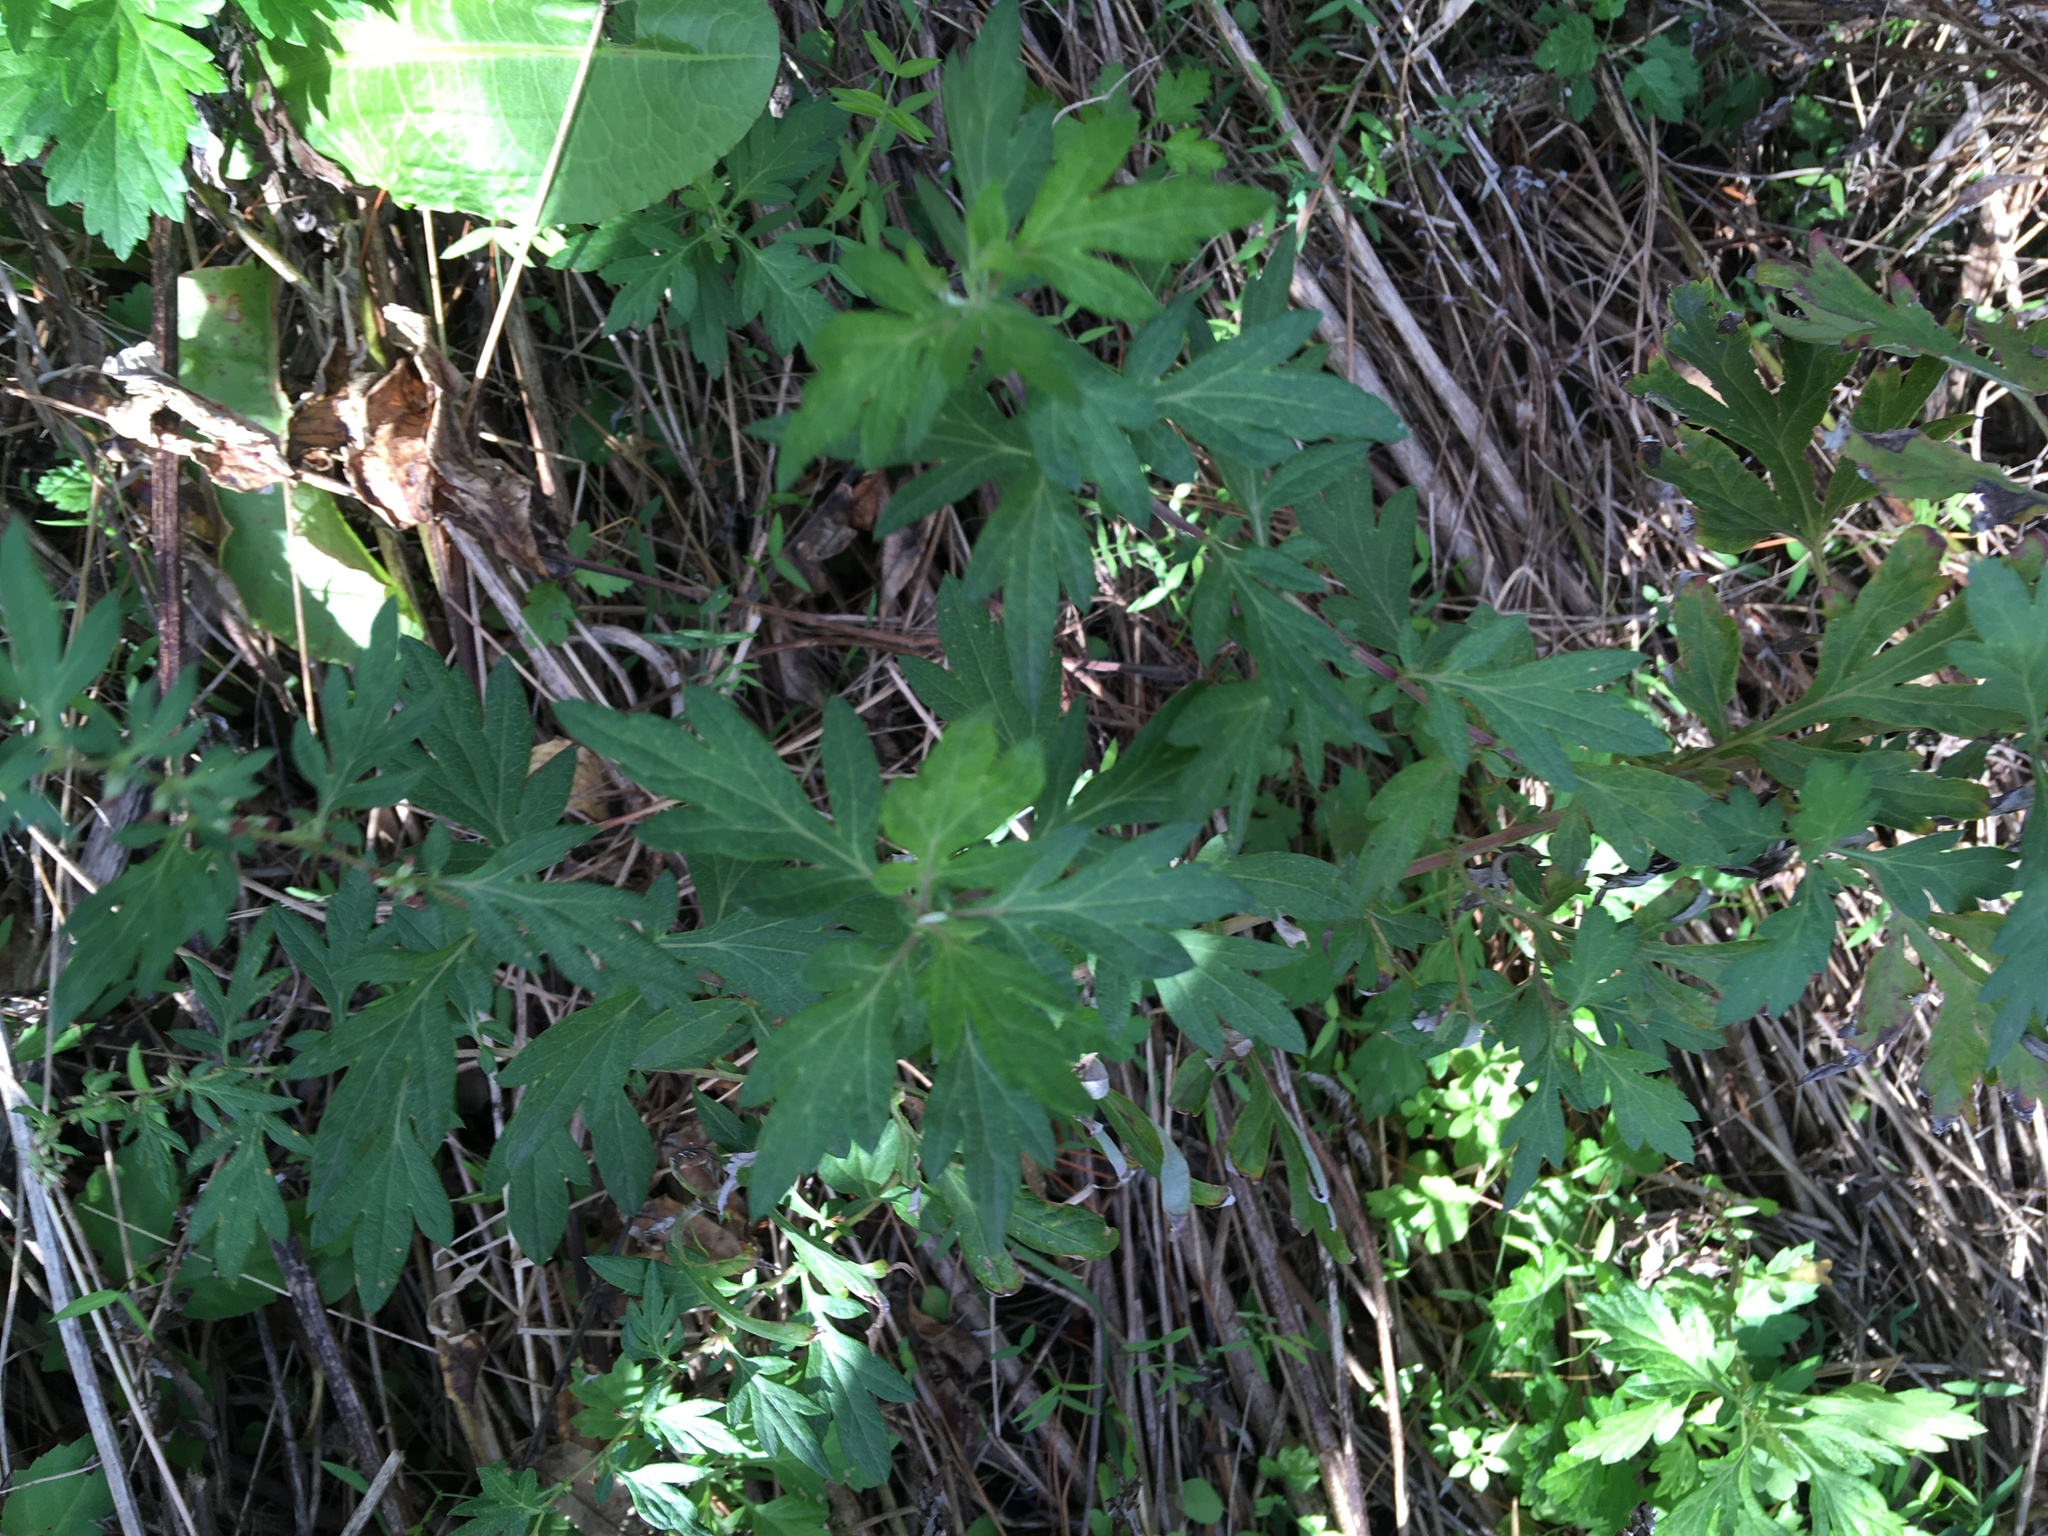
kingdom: Plantae
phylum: Tracheophyta
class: Magnoliopsida
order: Asterales
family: Asteraceae
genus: Artemisia
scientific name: Artemisia vulgaris
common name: Mugwort
